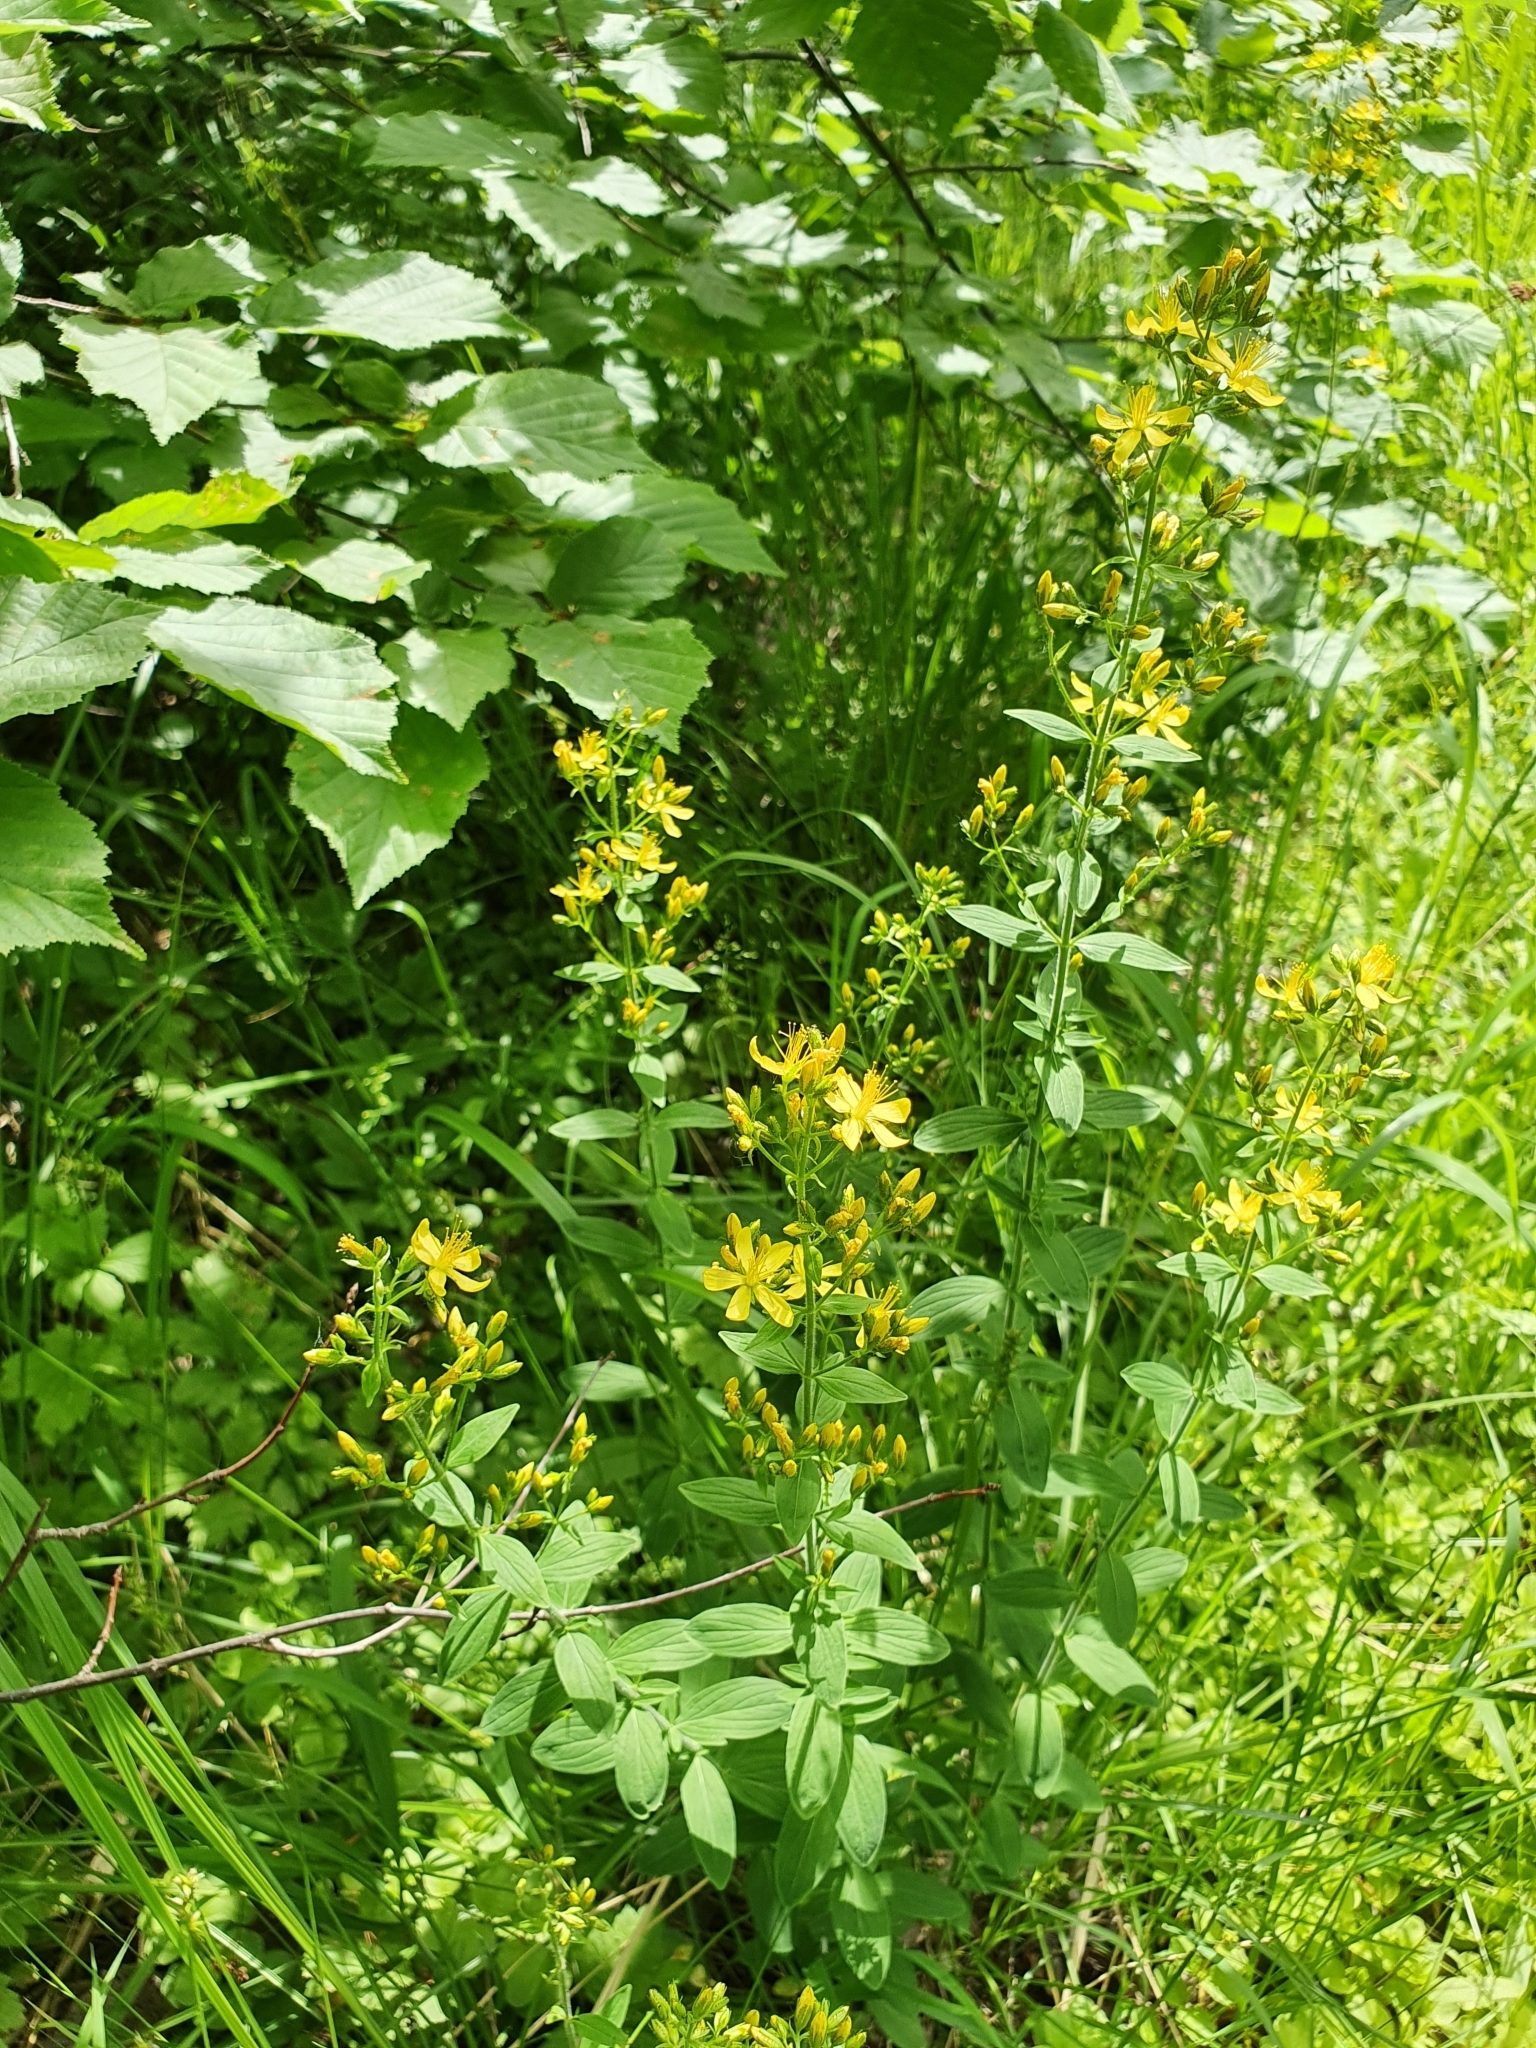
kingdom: Plantae
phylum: Tracheophyta
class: Magnoliopsida
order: Malpighiales
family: Hypericaceae
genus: Hypericum
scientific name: Hypericum hirsutum
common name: Hairy st. john's-wort
